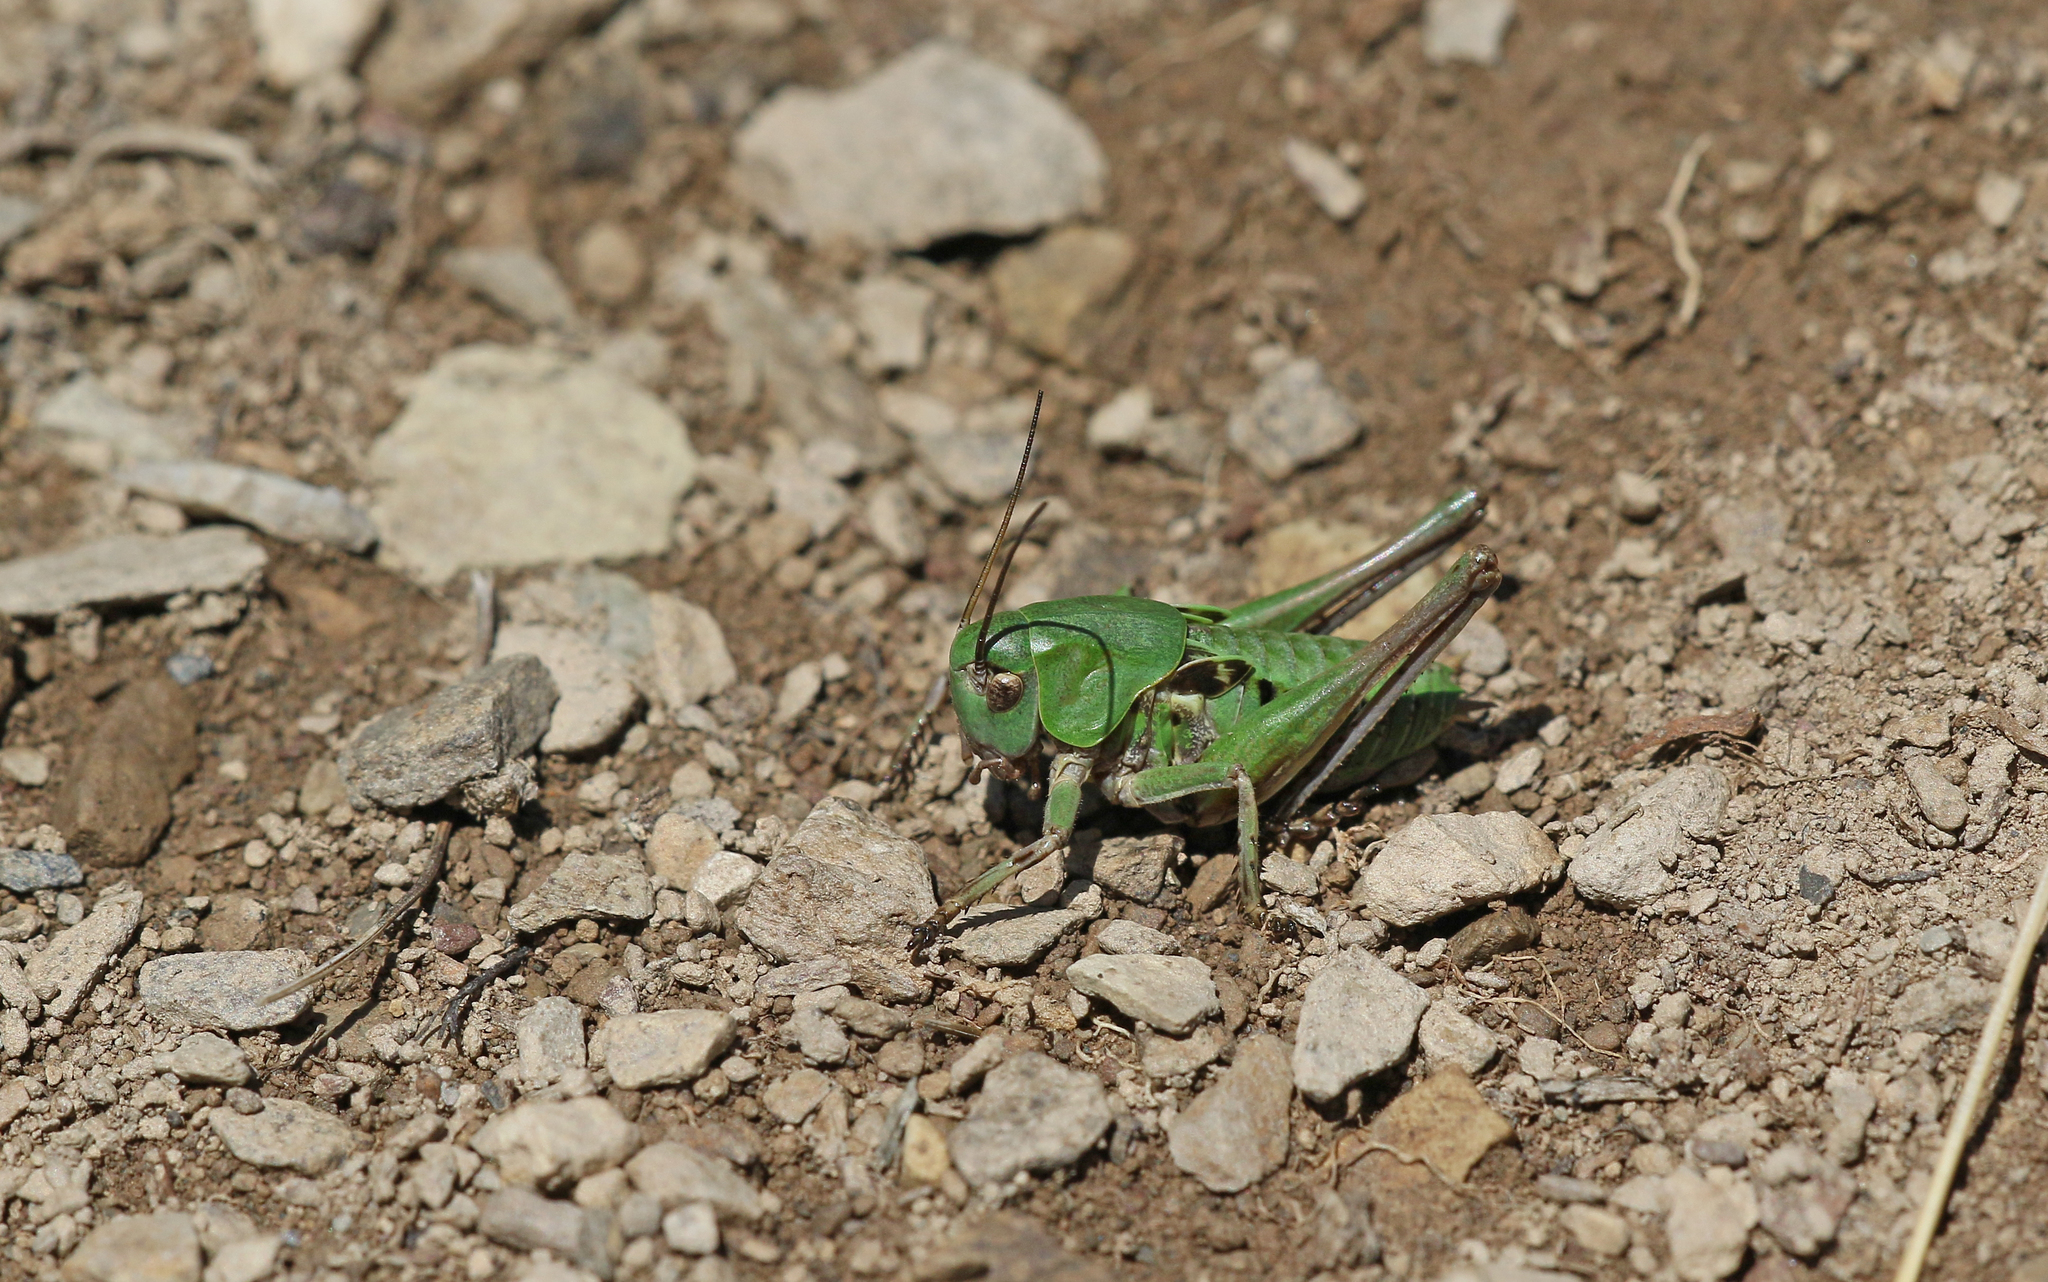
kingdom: Animalia
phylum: Arthropoda
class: Insecta
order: Orthoptera
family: Tettigoniidae
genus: Decticus
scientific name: Decticus verrucivorus
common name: Wart-biter
